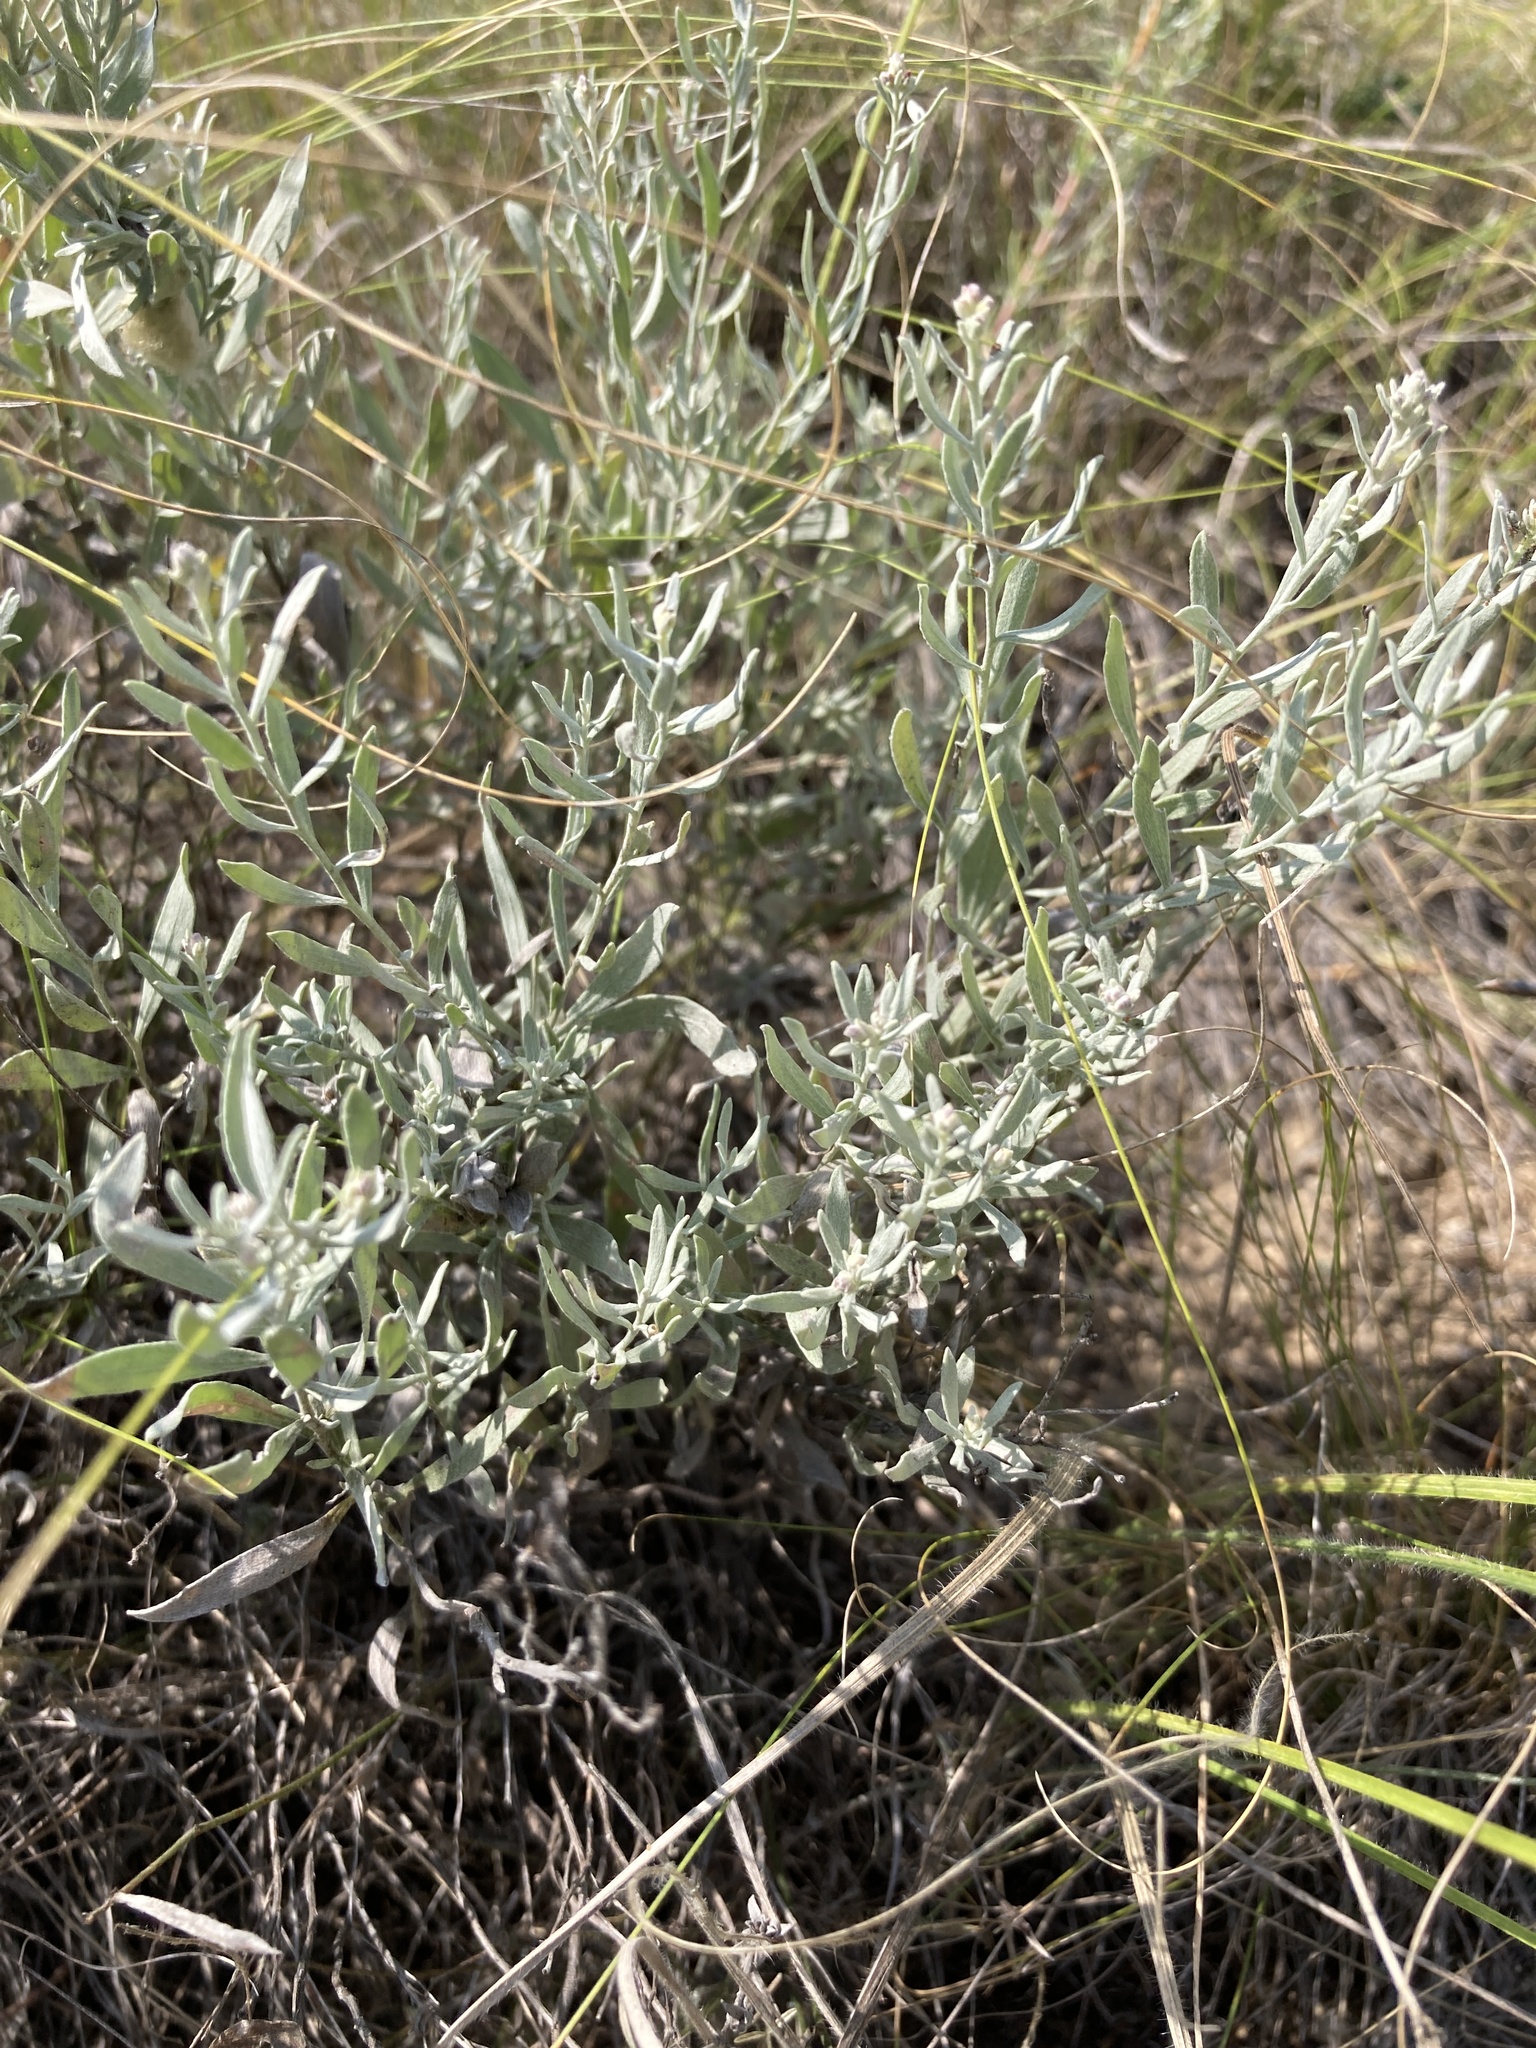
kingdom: Plantae
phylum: Tracheophyta
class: Magnoliopsida
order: Asterales
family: Asteraceae
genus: Galatella
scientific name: Galatella villosa
